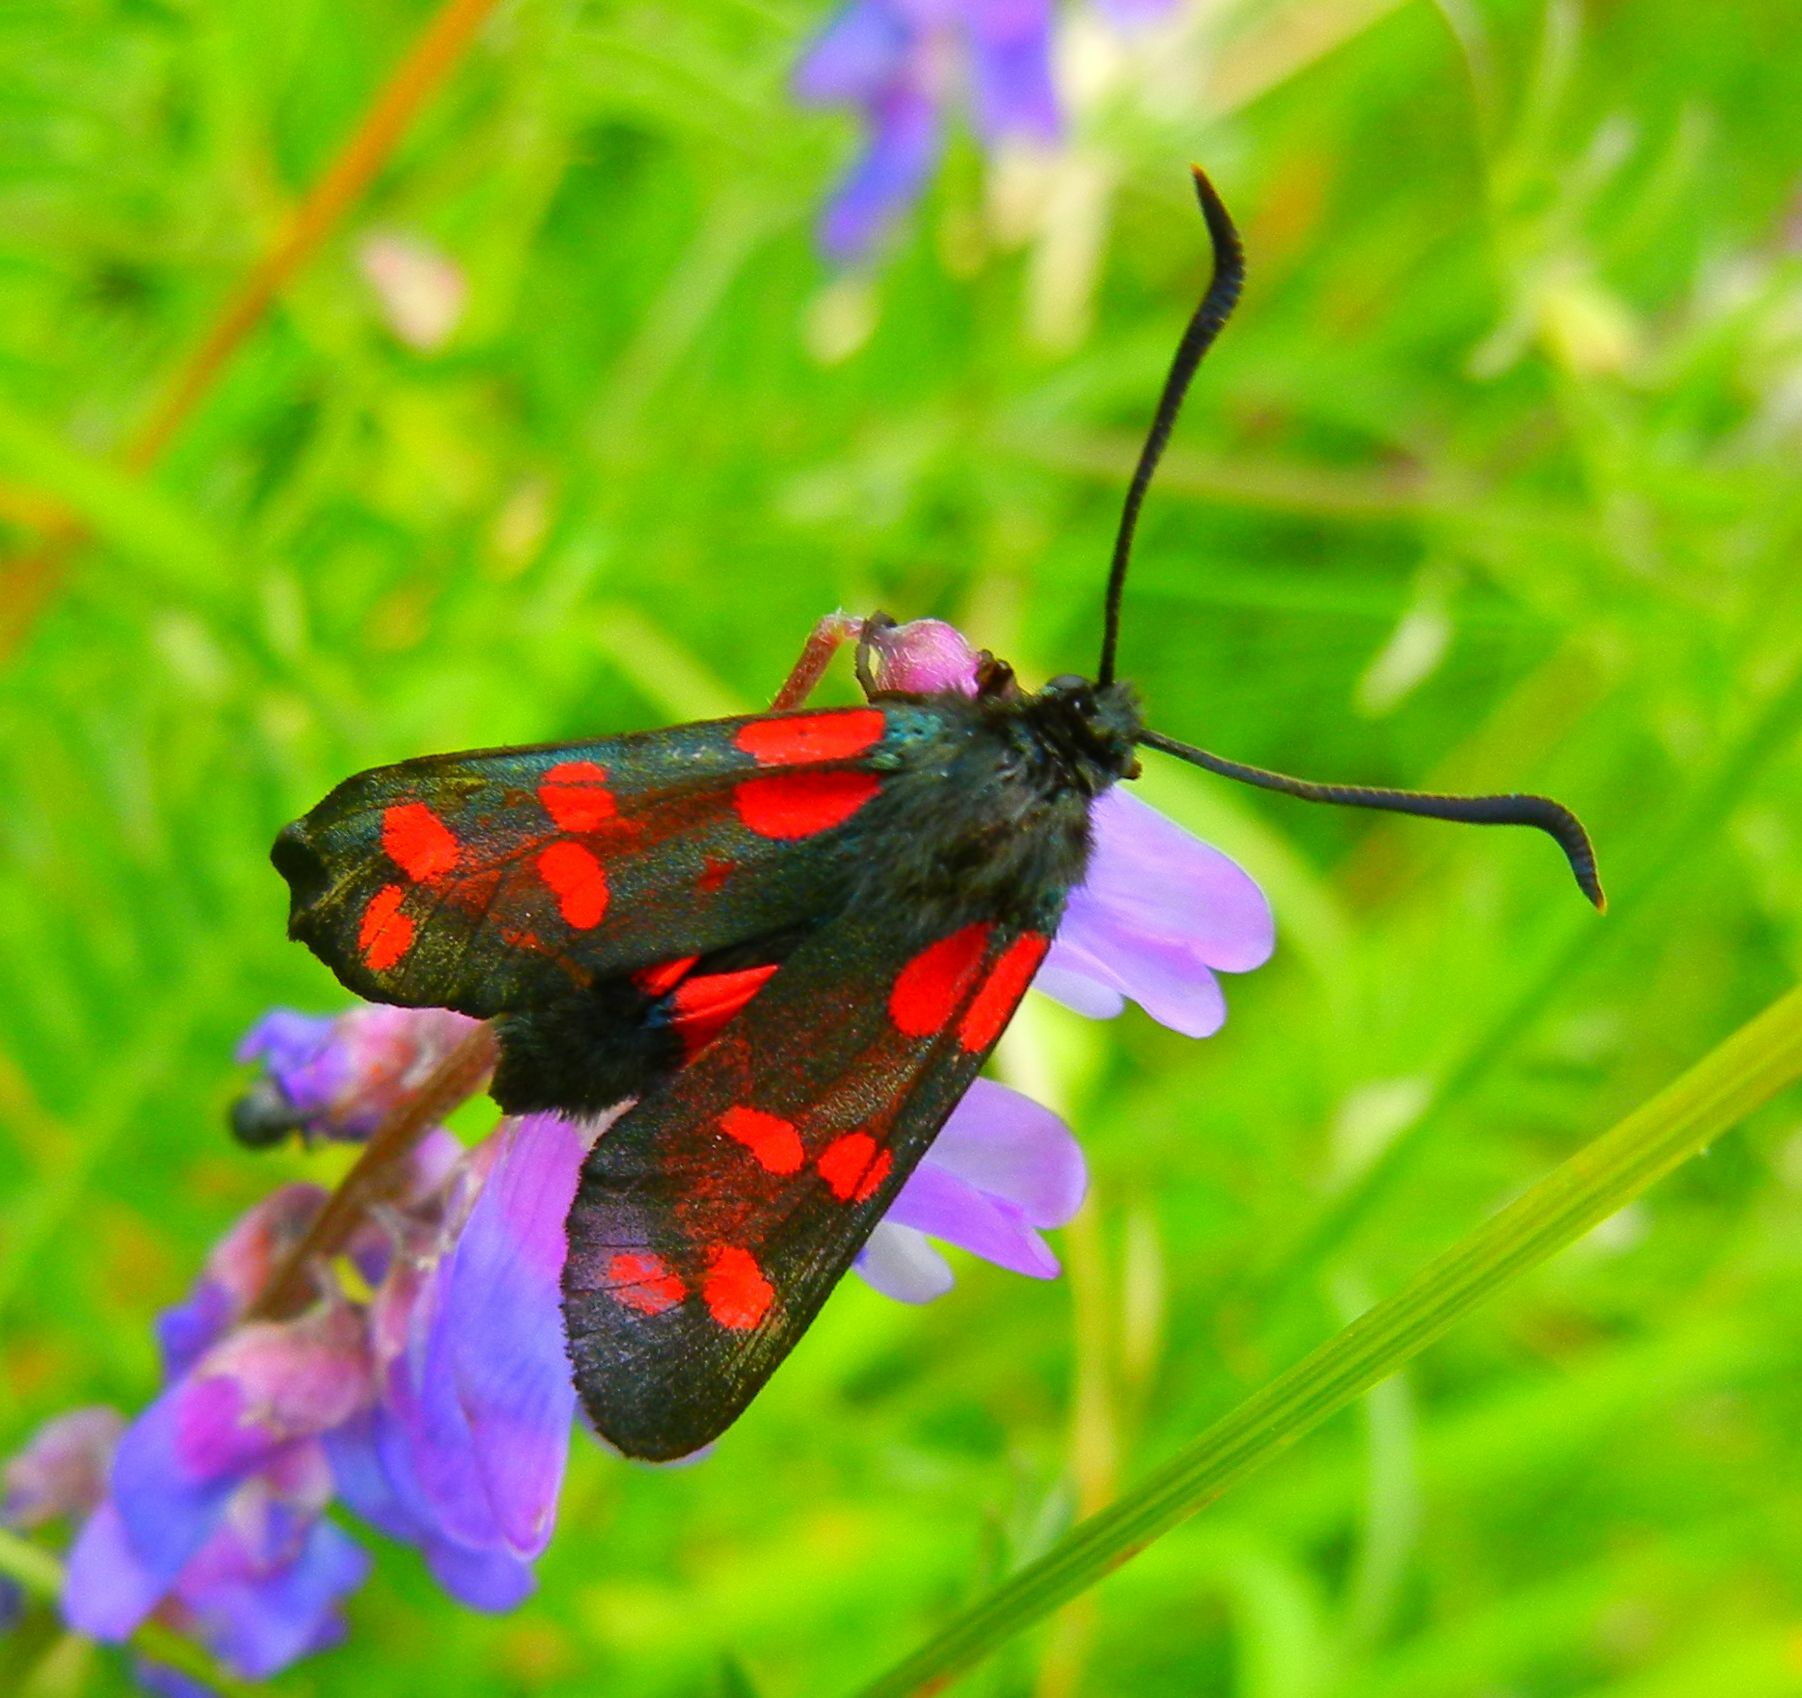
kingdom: Animalia
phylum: Arthropoda
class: Insecta
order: Lepidoptera
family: Zygaenidae
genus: Zygaena
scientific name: Zygaena filipendulae
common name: Six-spot burnet
